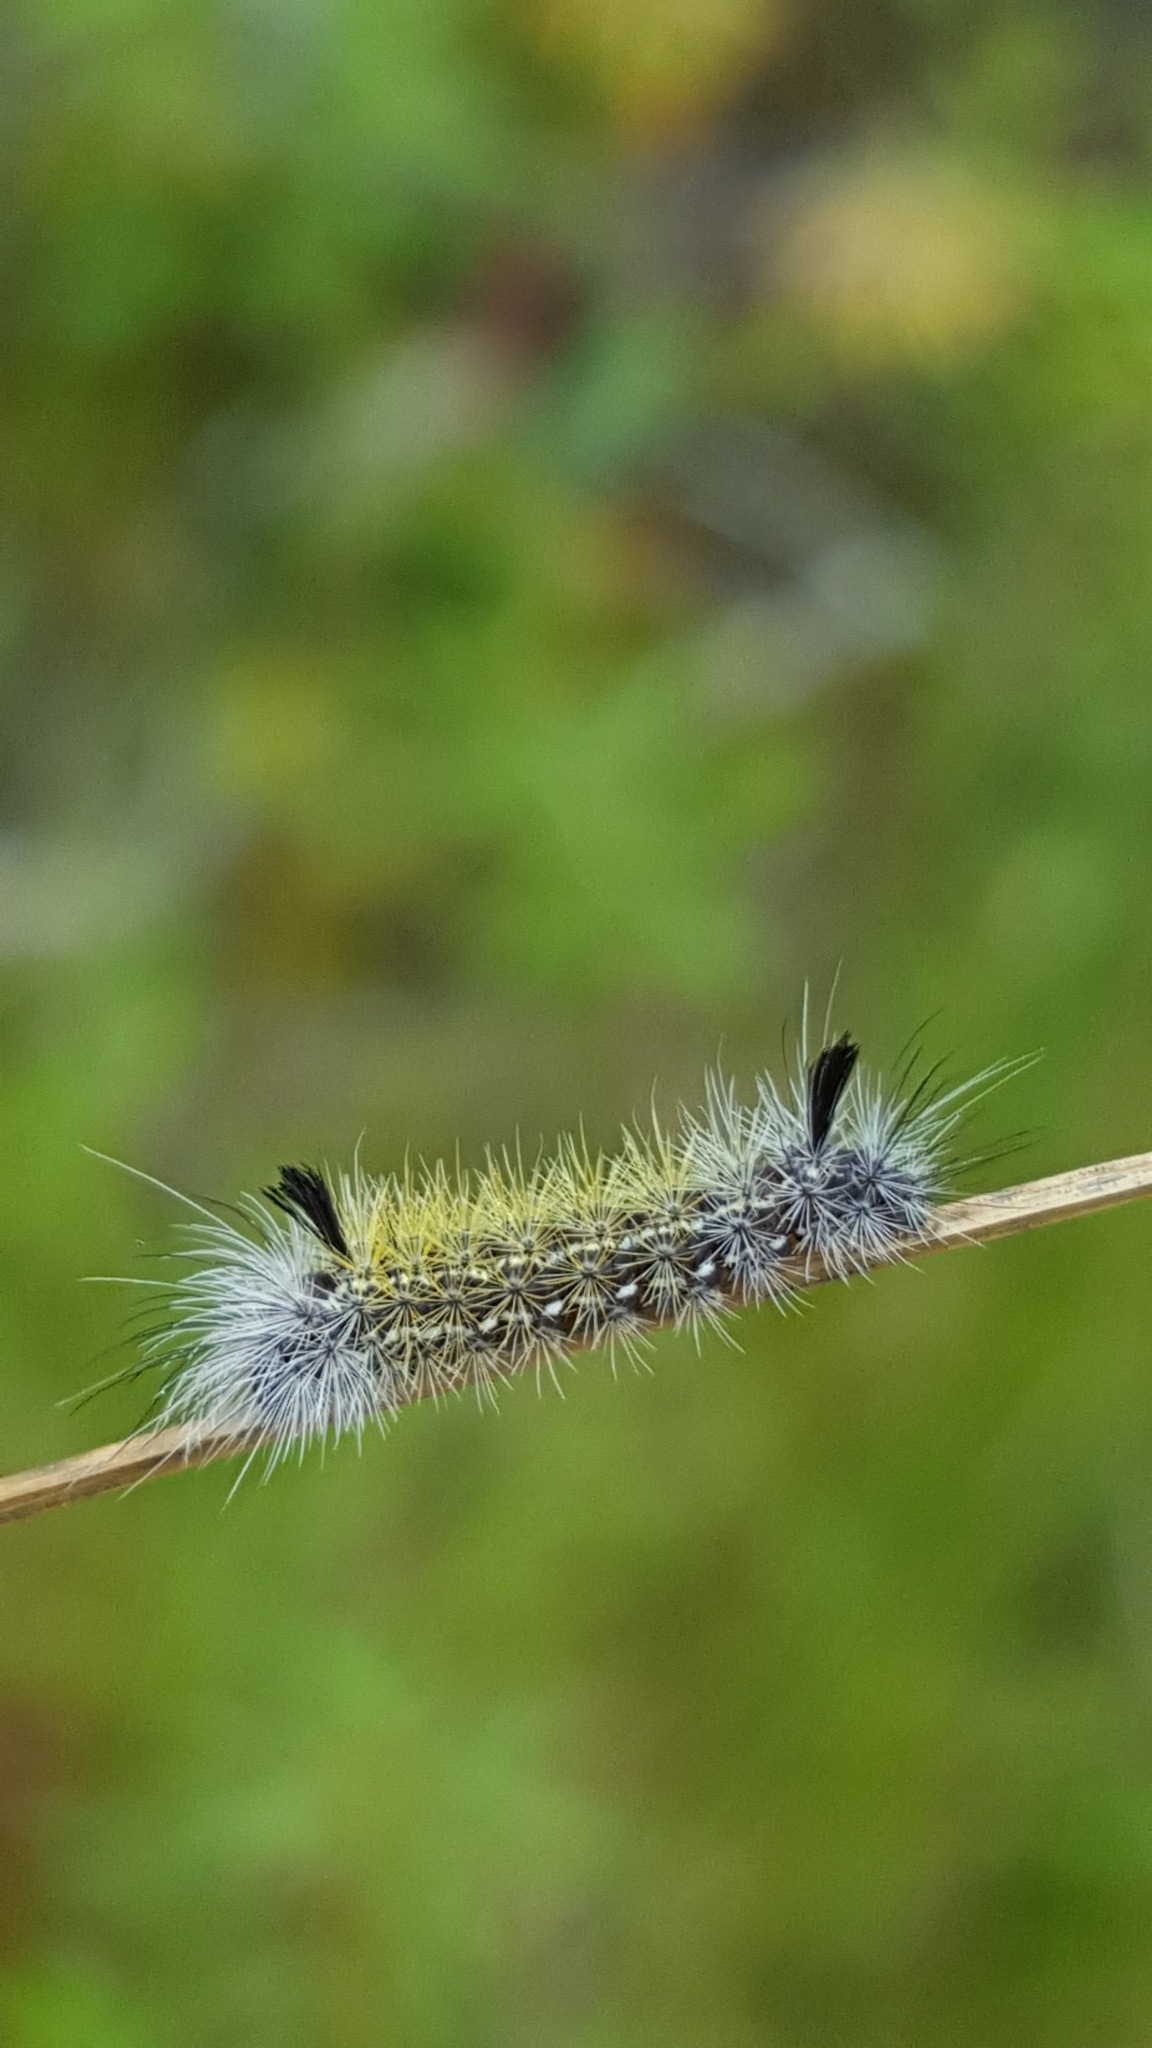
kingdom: Animalia
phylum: Arthropoda
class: Insecta
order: Lepidoptera
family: Erebidae
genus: Ctenucha
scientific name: Ctenucha virginica
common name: Virginia ctenucha moth
